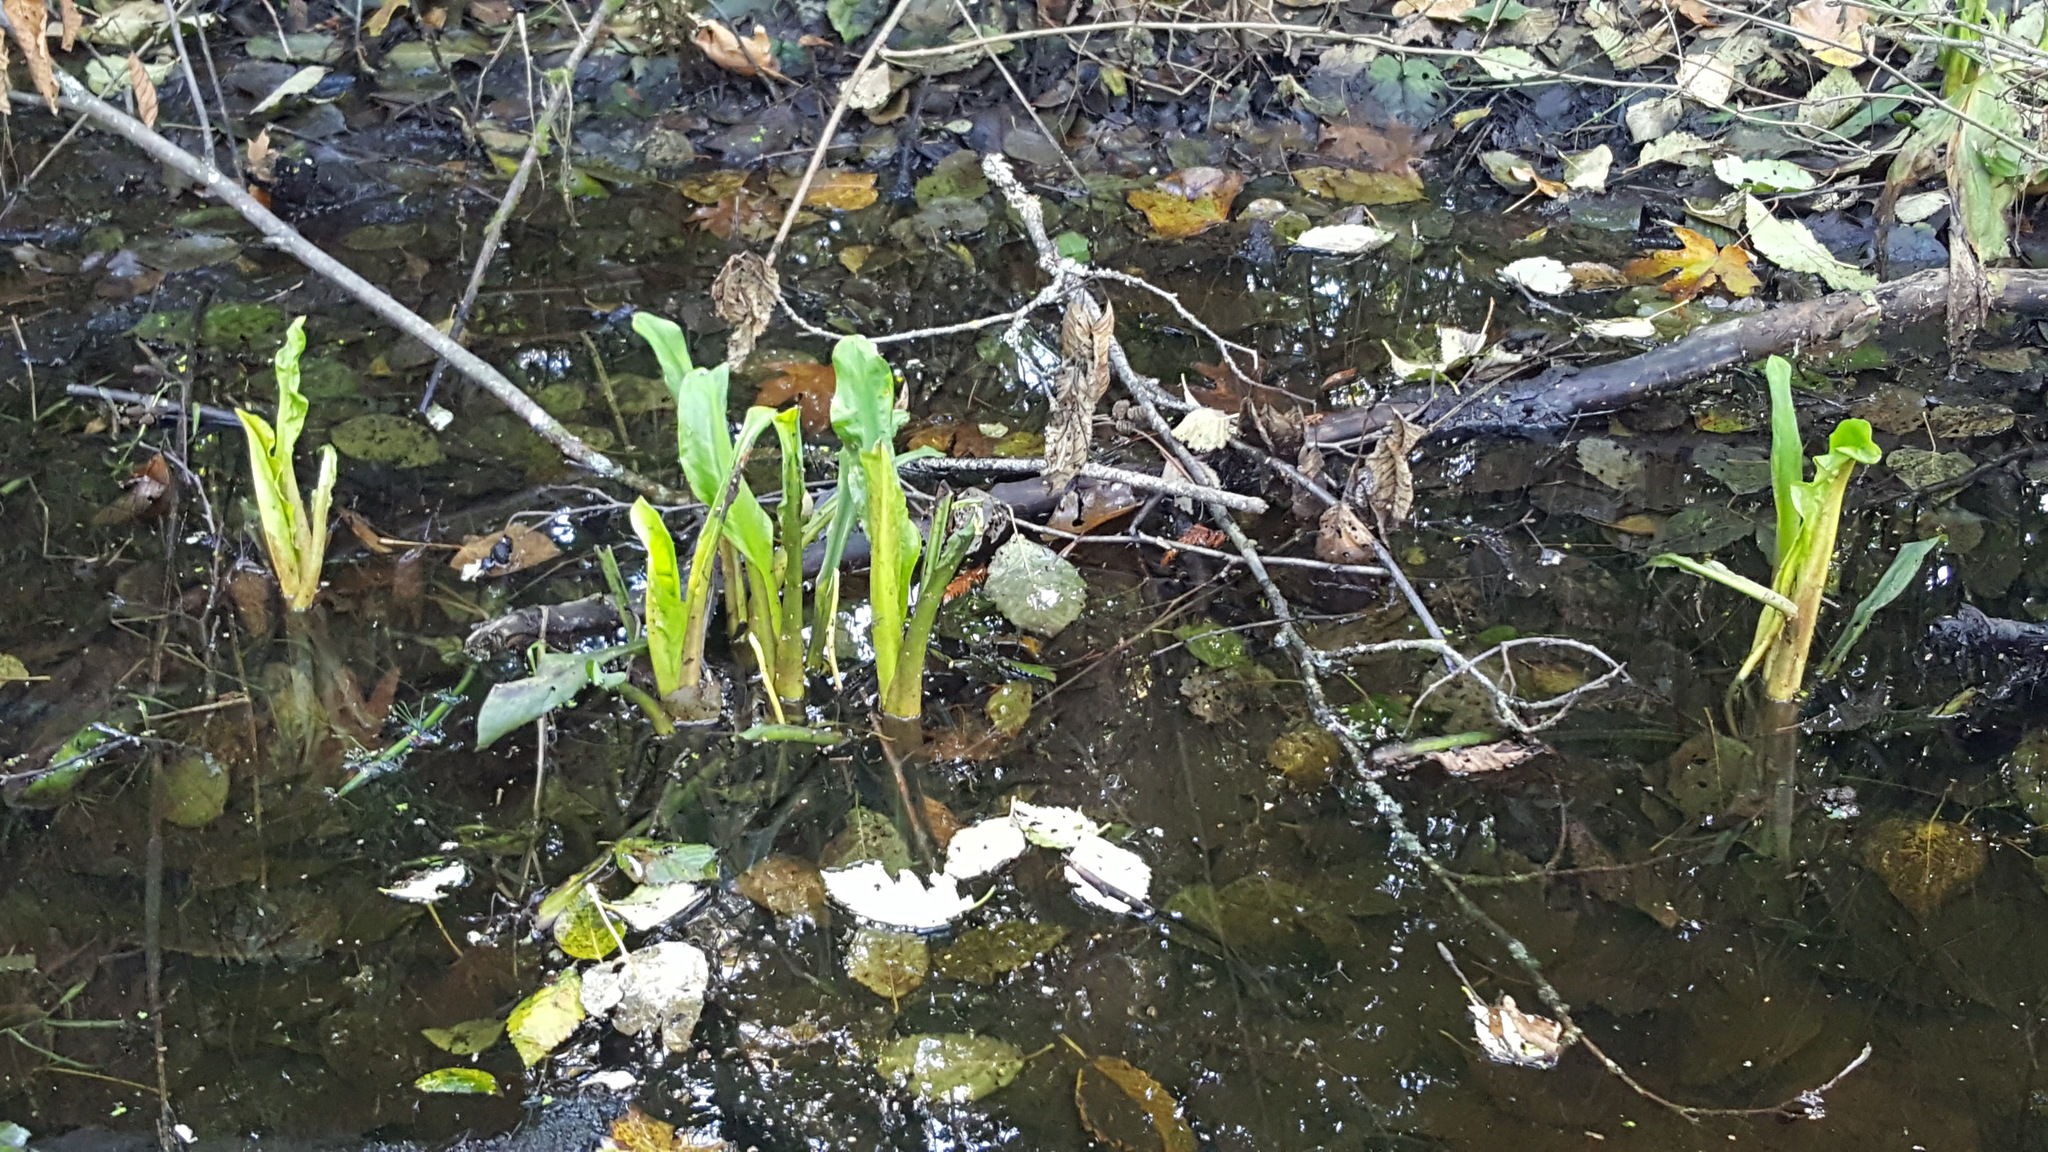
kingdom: Plantae
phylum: Tracheophyta
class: Liliopsida
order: Alismatales
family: Araceae
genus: Lysichiton
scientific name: Lysichiton americanus
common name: American skunk cabbage
